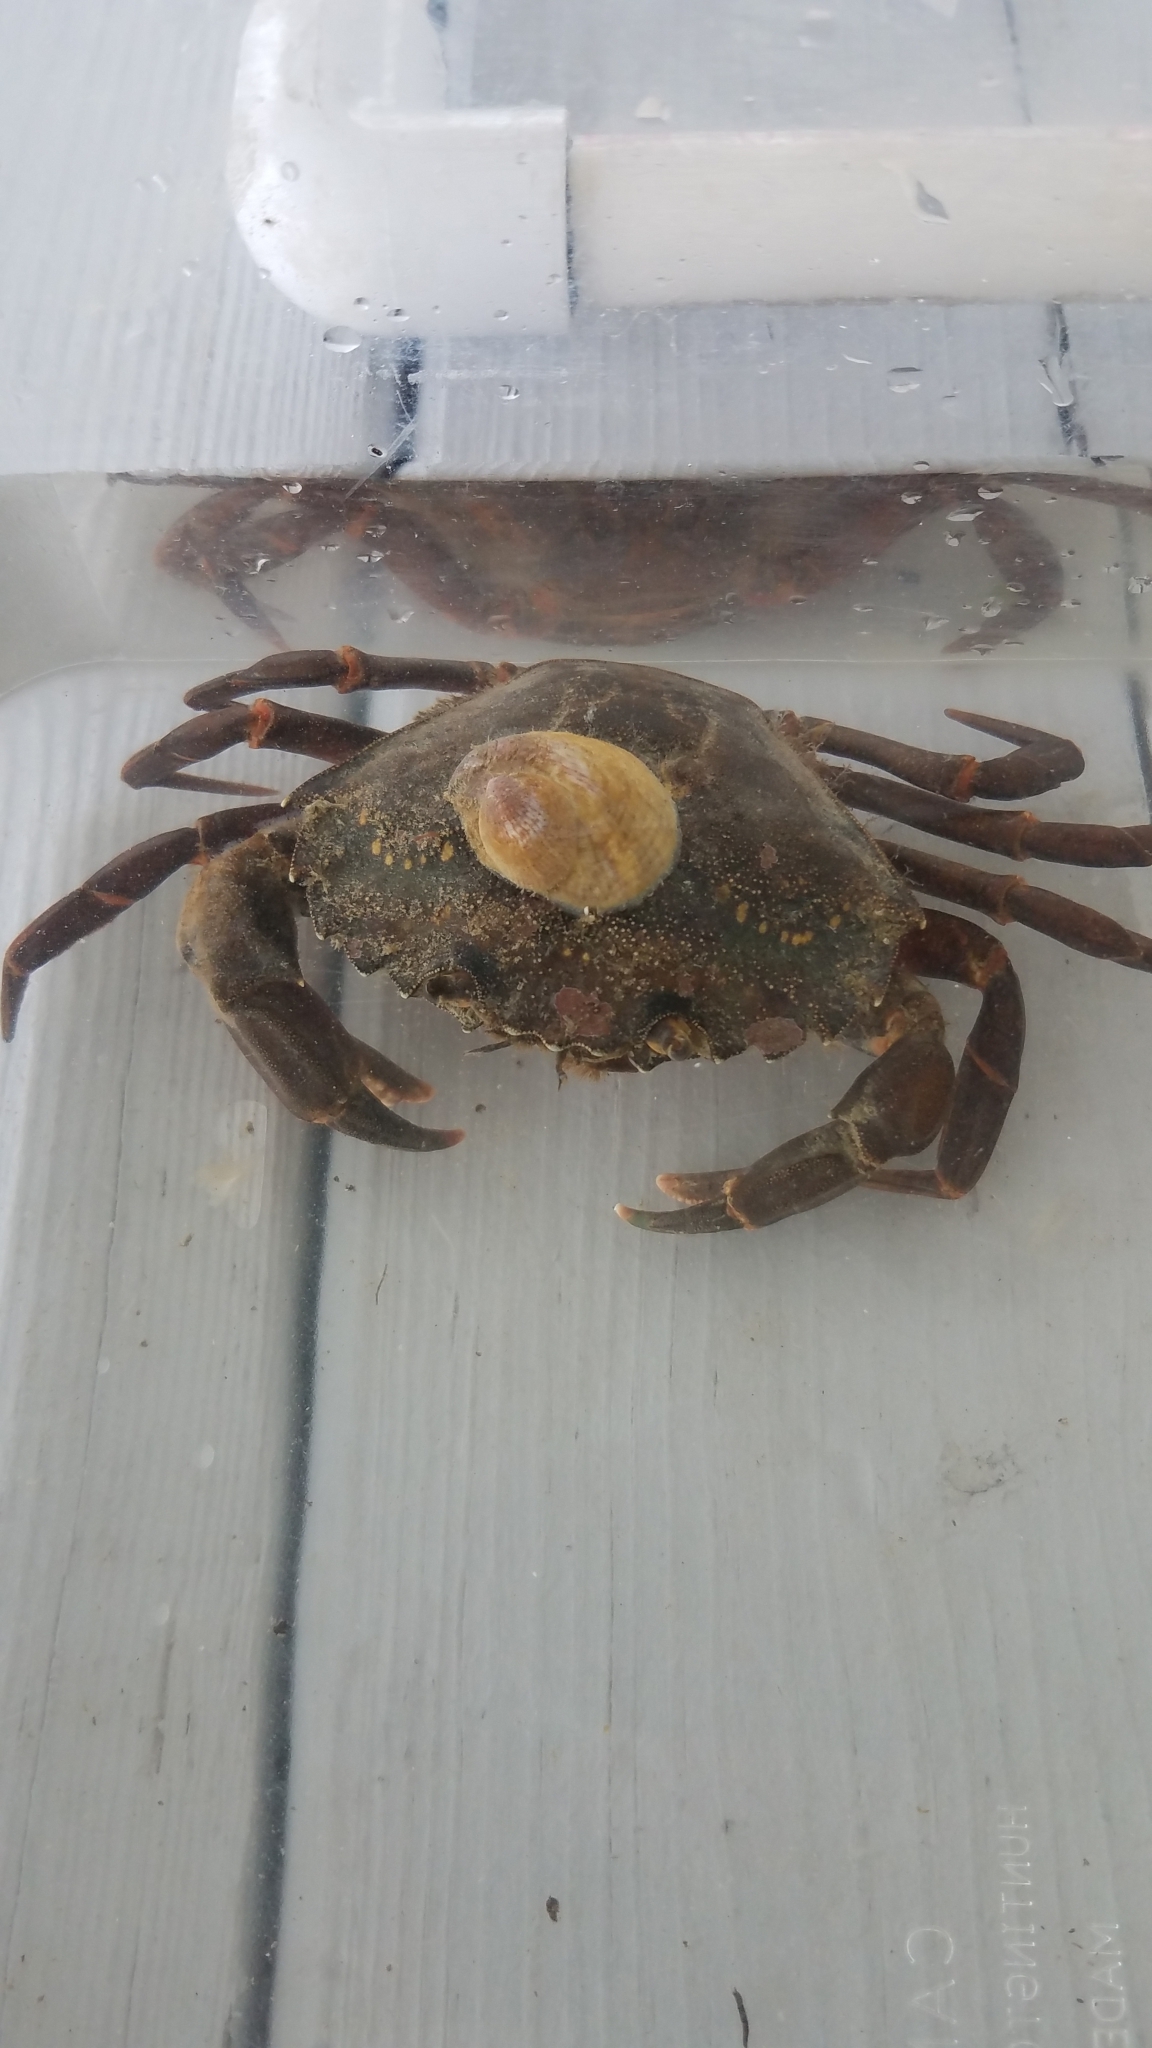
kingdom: Animalia
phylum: Arthropoda
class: Malacostraca
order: Decapoda
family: Carcinidae
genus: Carcinus
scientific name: Carcinus maenas
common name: European green crab
